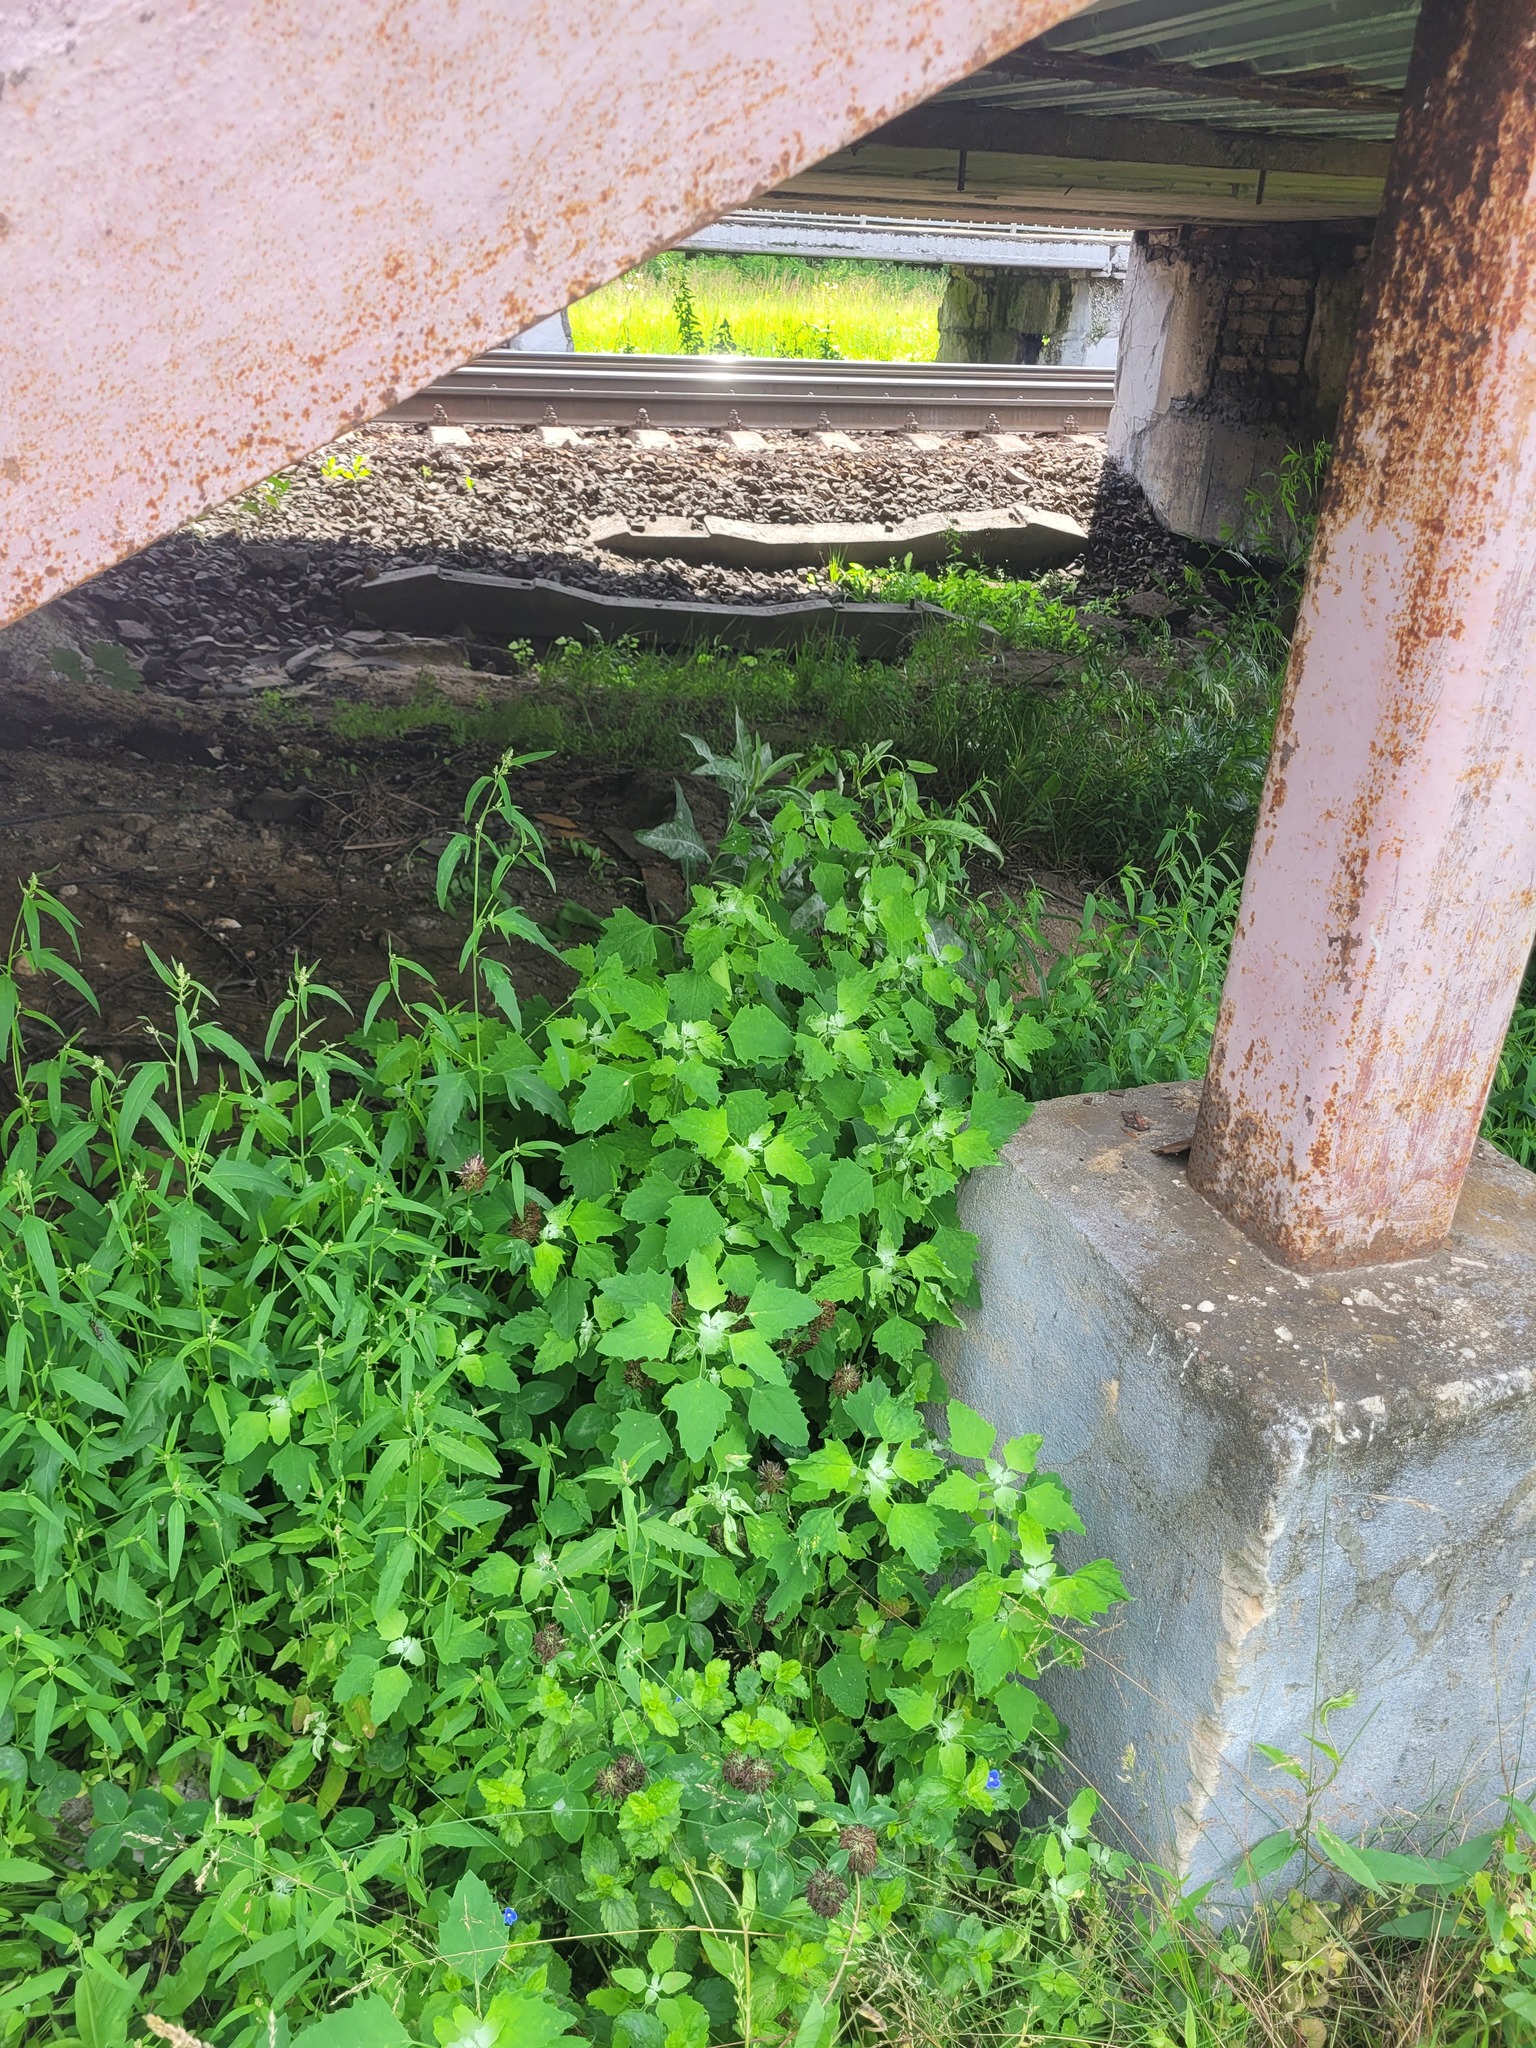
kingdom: Plantae
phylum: Tracheophyta
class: Magnoliopsida
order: Caryophyllales
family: Amaranthaceae
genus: Chenopodium
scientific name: Chenopodium album
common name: Fat-hen
